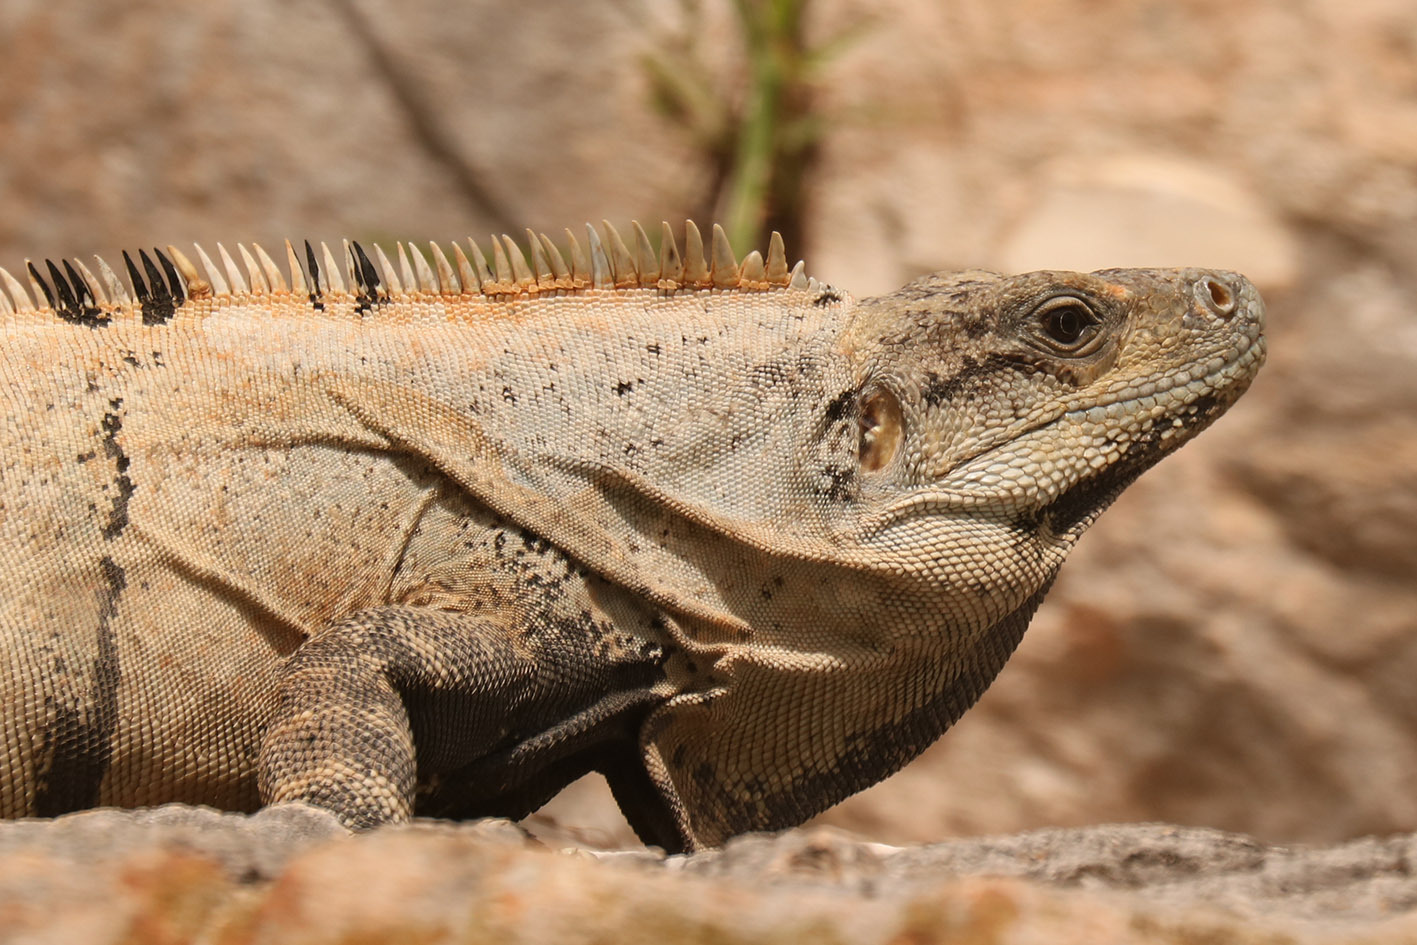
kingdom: Animalia
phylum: Chordata
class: Squamata
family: Iguanidae
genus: Ctenosaura
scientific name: Ctenosaura similis
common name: Black spiny-tailed iguana
